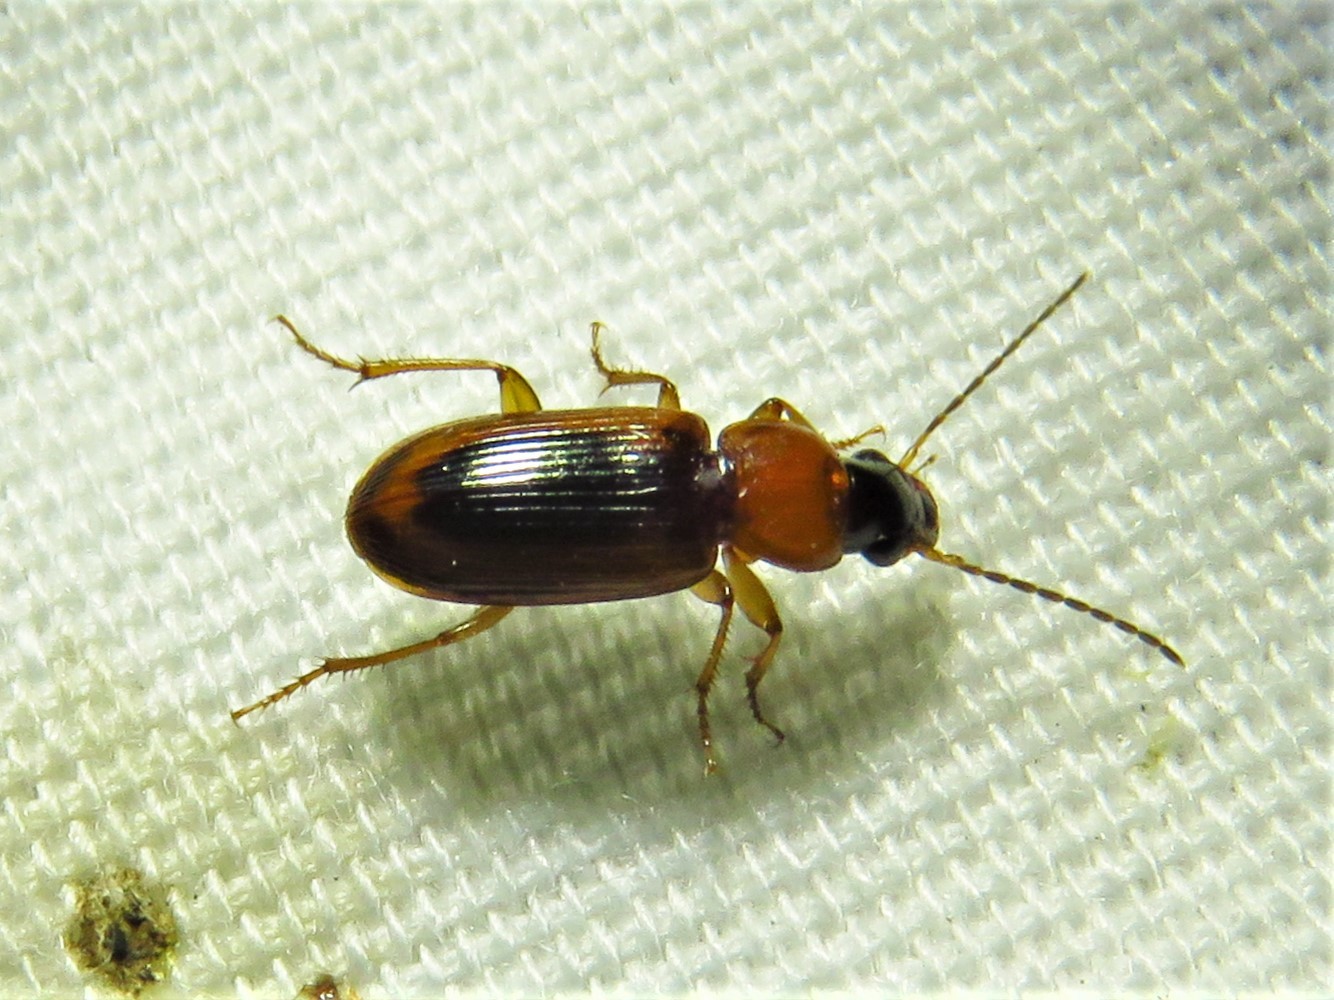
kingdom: Animalia
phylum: Arthropoda
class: Insecta
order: Coleoptera
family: Carabidae
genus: Stenolophus
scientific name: Stenolophus dissimilis
